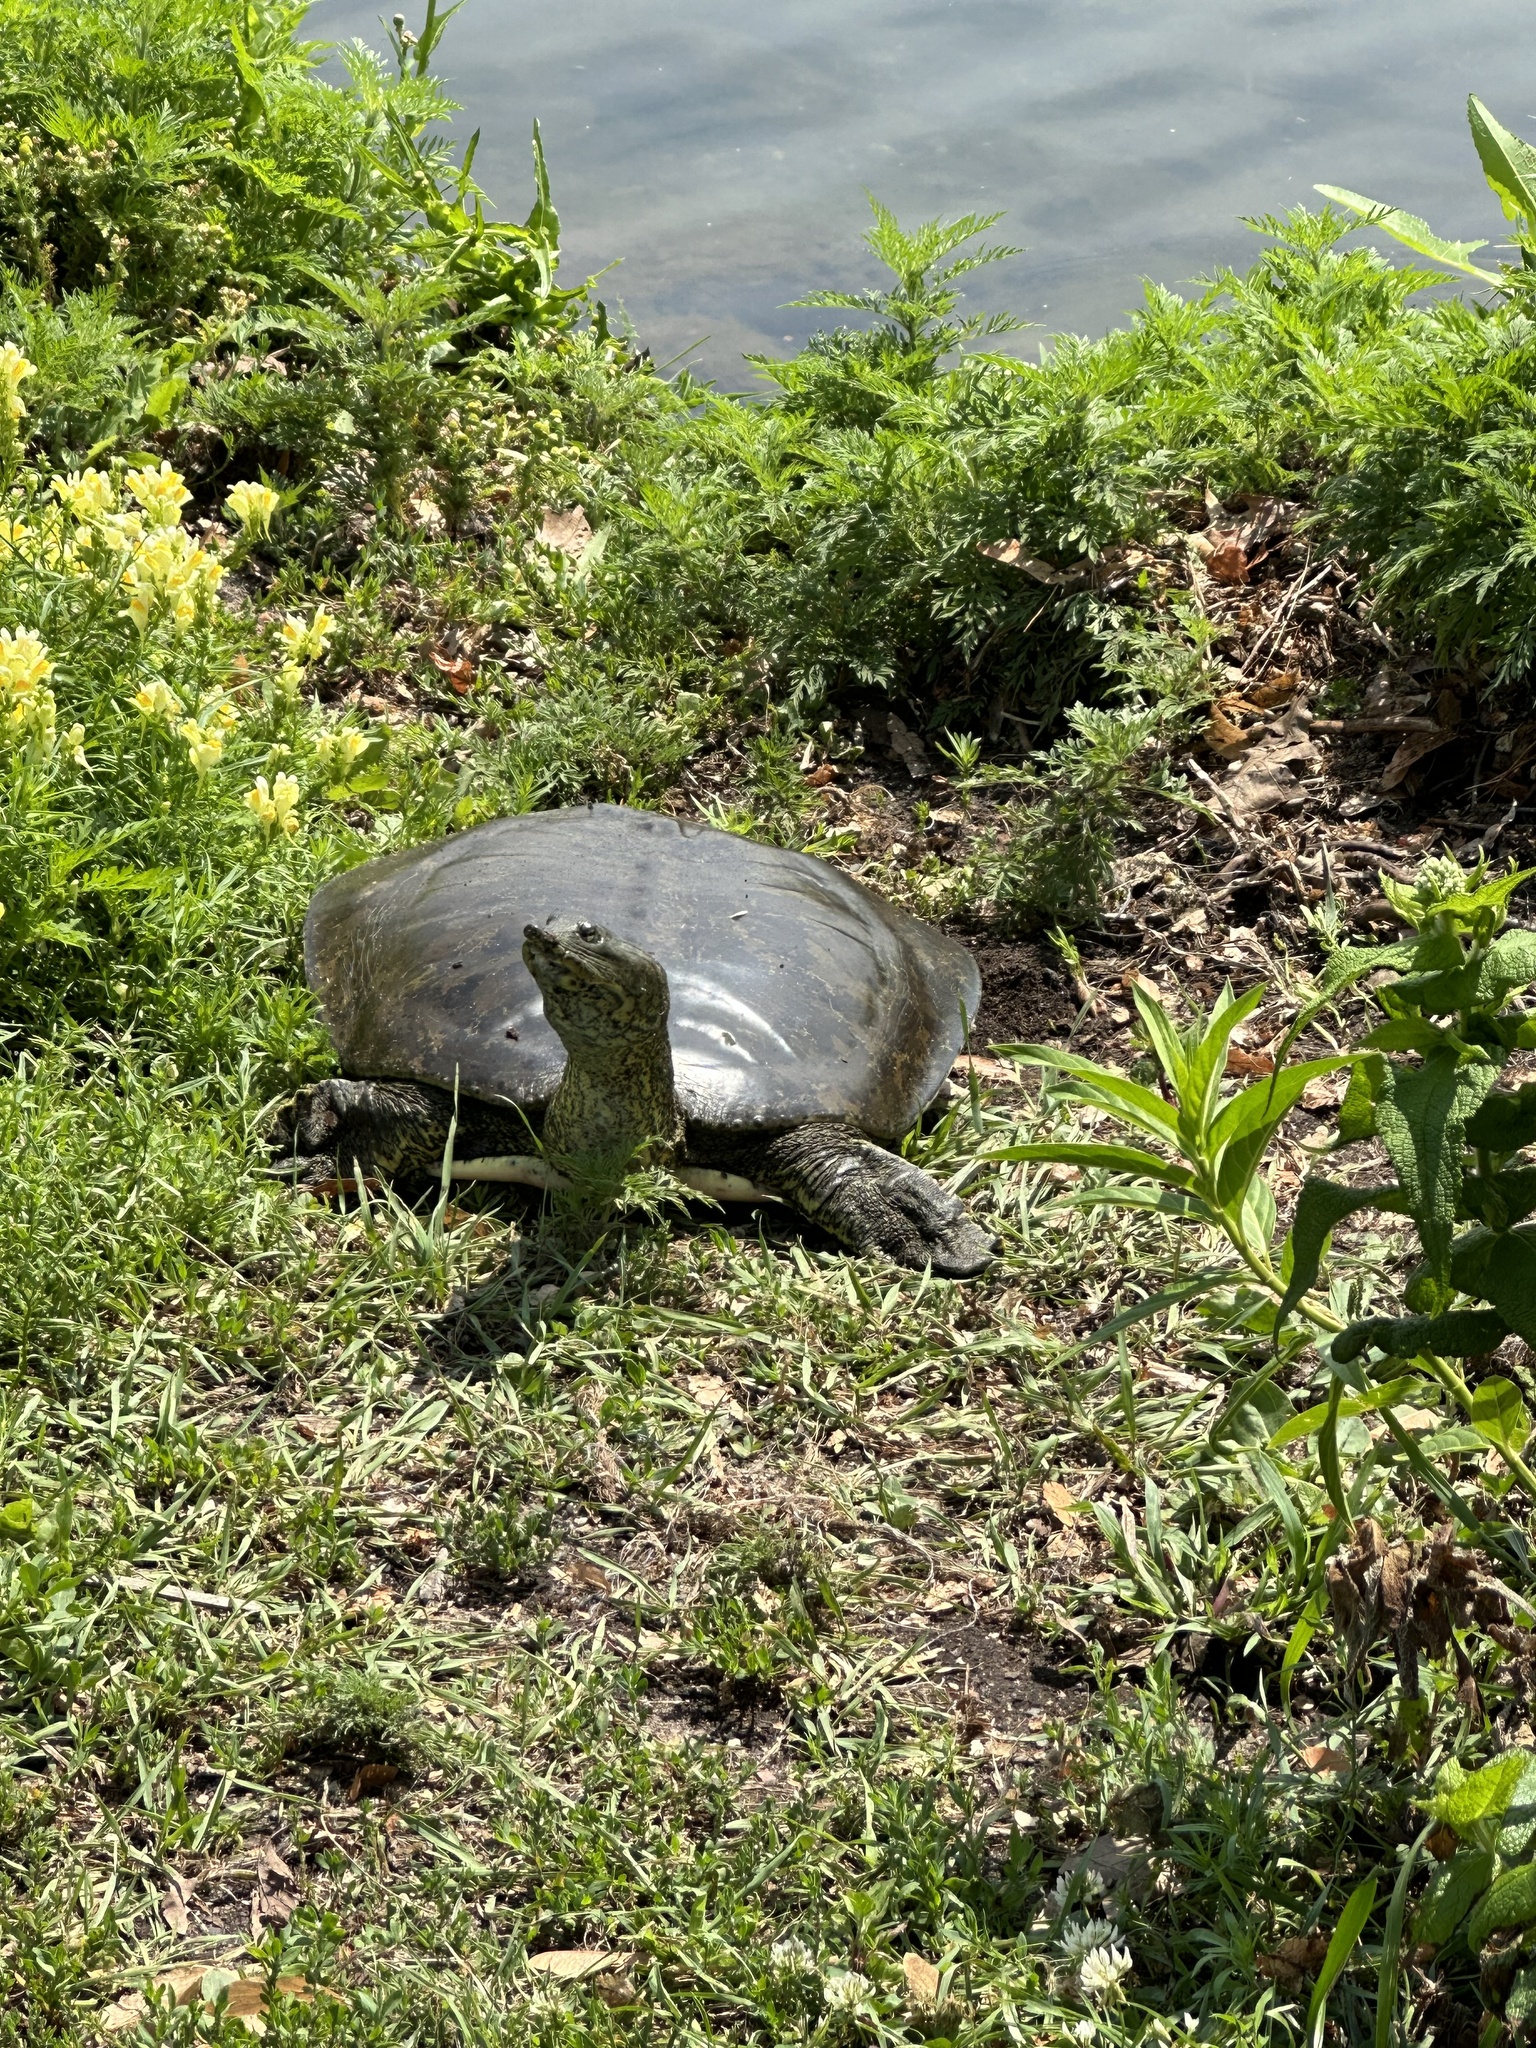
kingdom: Animalia
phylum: Chordata
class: Testudines
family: Trionychidae
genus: Apalone
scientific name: Apalone spinifera
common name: Spiny softshell turtle
